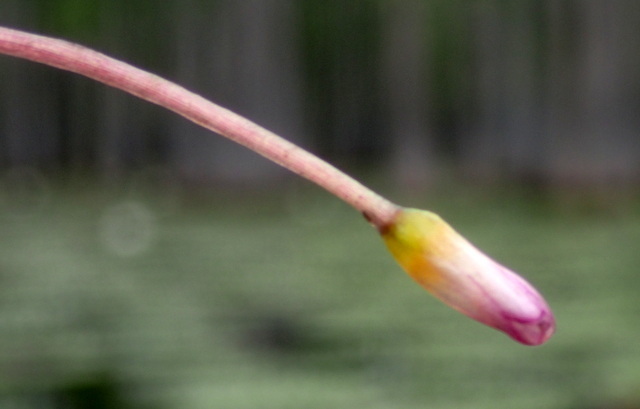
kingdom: Plantae
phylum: Tracheophyta
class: Magnoliopsida
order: Nymphaeales
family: Cabombaceae
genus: Cabomba
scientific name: Cabomba caroliniana
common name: Fanwort
